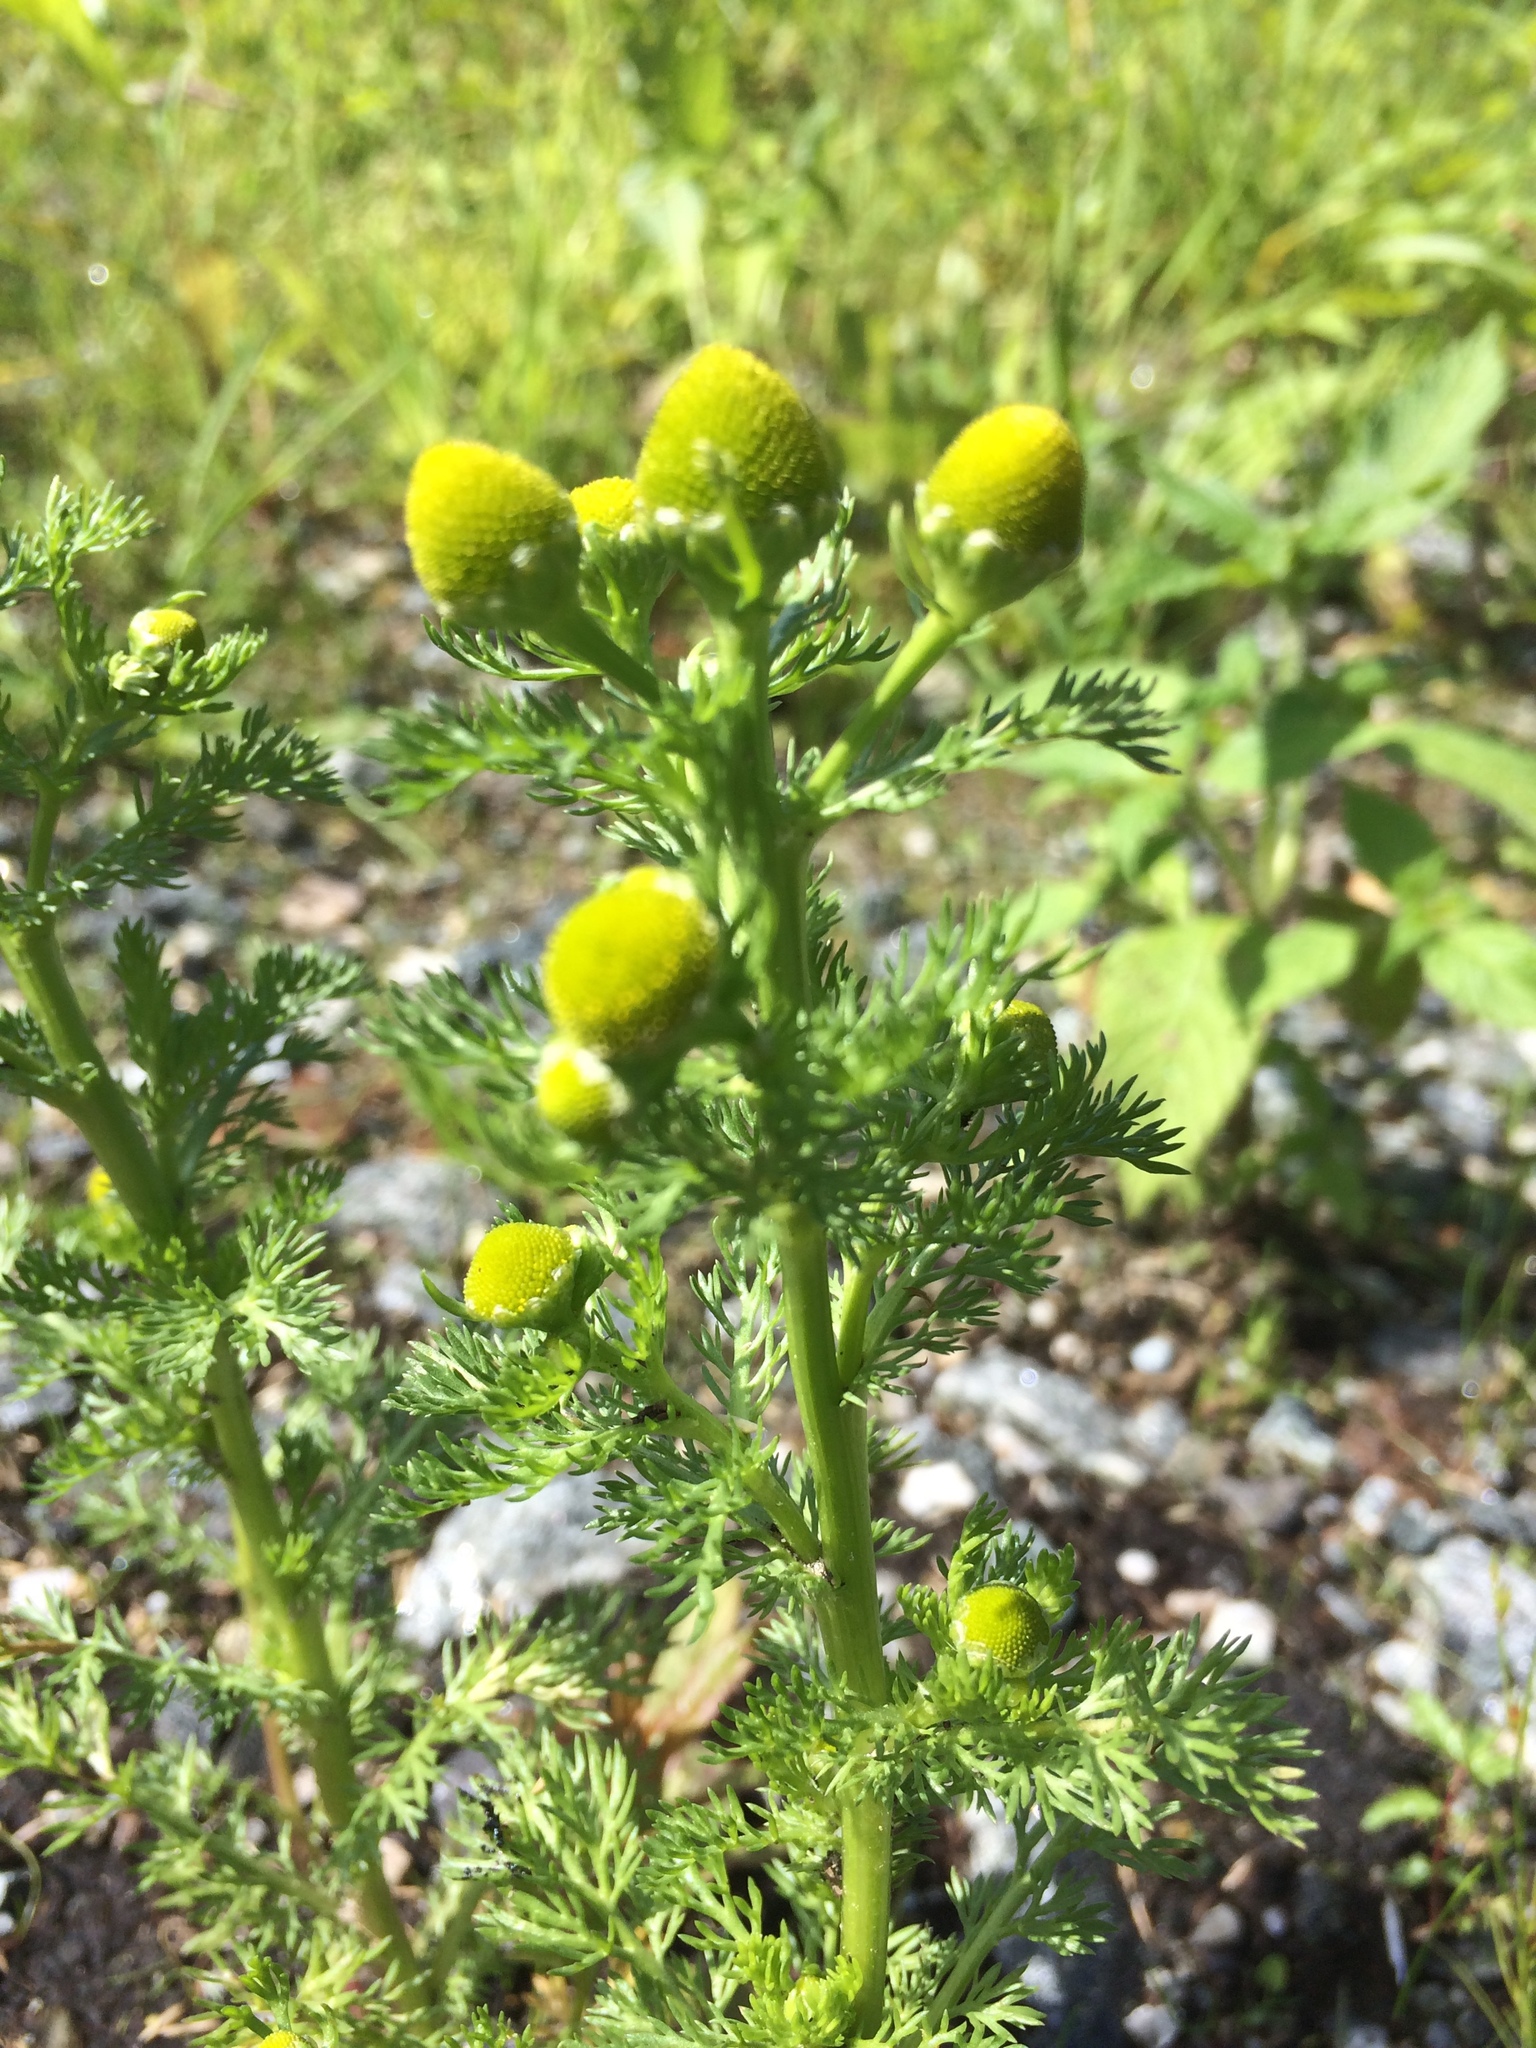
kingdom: Plantae
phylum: Tracheophyta
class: Magnoliopsida
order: Asterales
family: Asteraceae
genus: Matricaria
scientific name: Matricaria discoidea
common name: Disc mayweed
